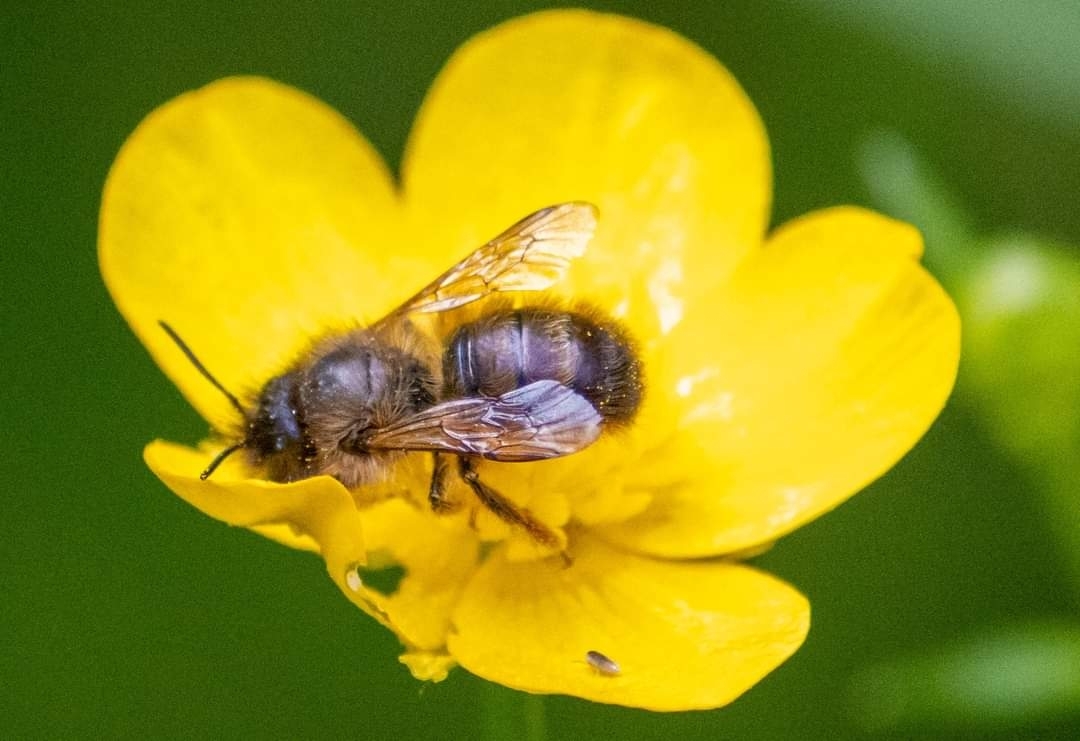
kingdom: Animalia
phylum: Arthropoda
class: Insecta
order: Hymenoptera
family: Megachilidae
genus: Osmia
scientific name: Osmia bicornis
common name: Red mason bee
